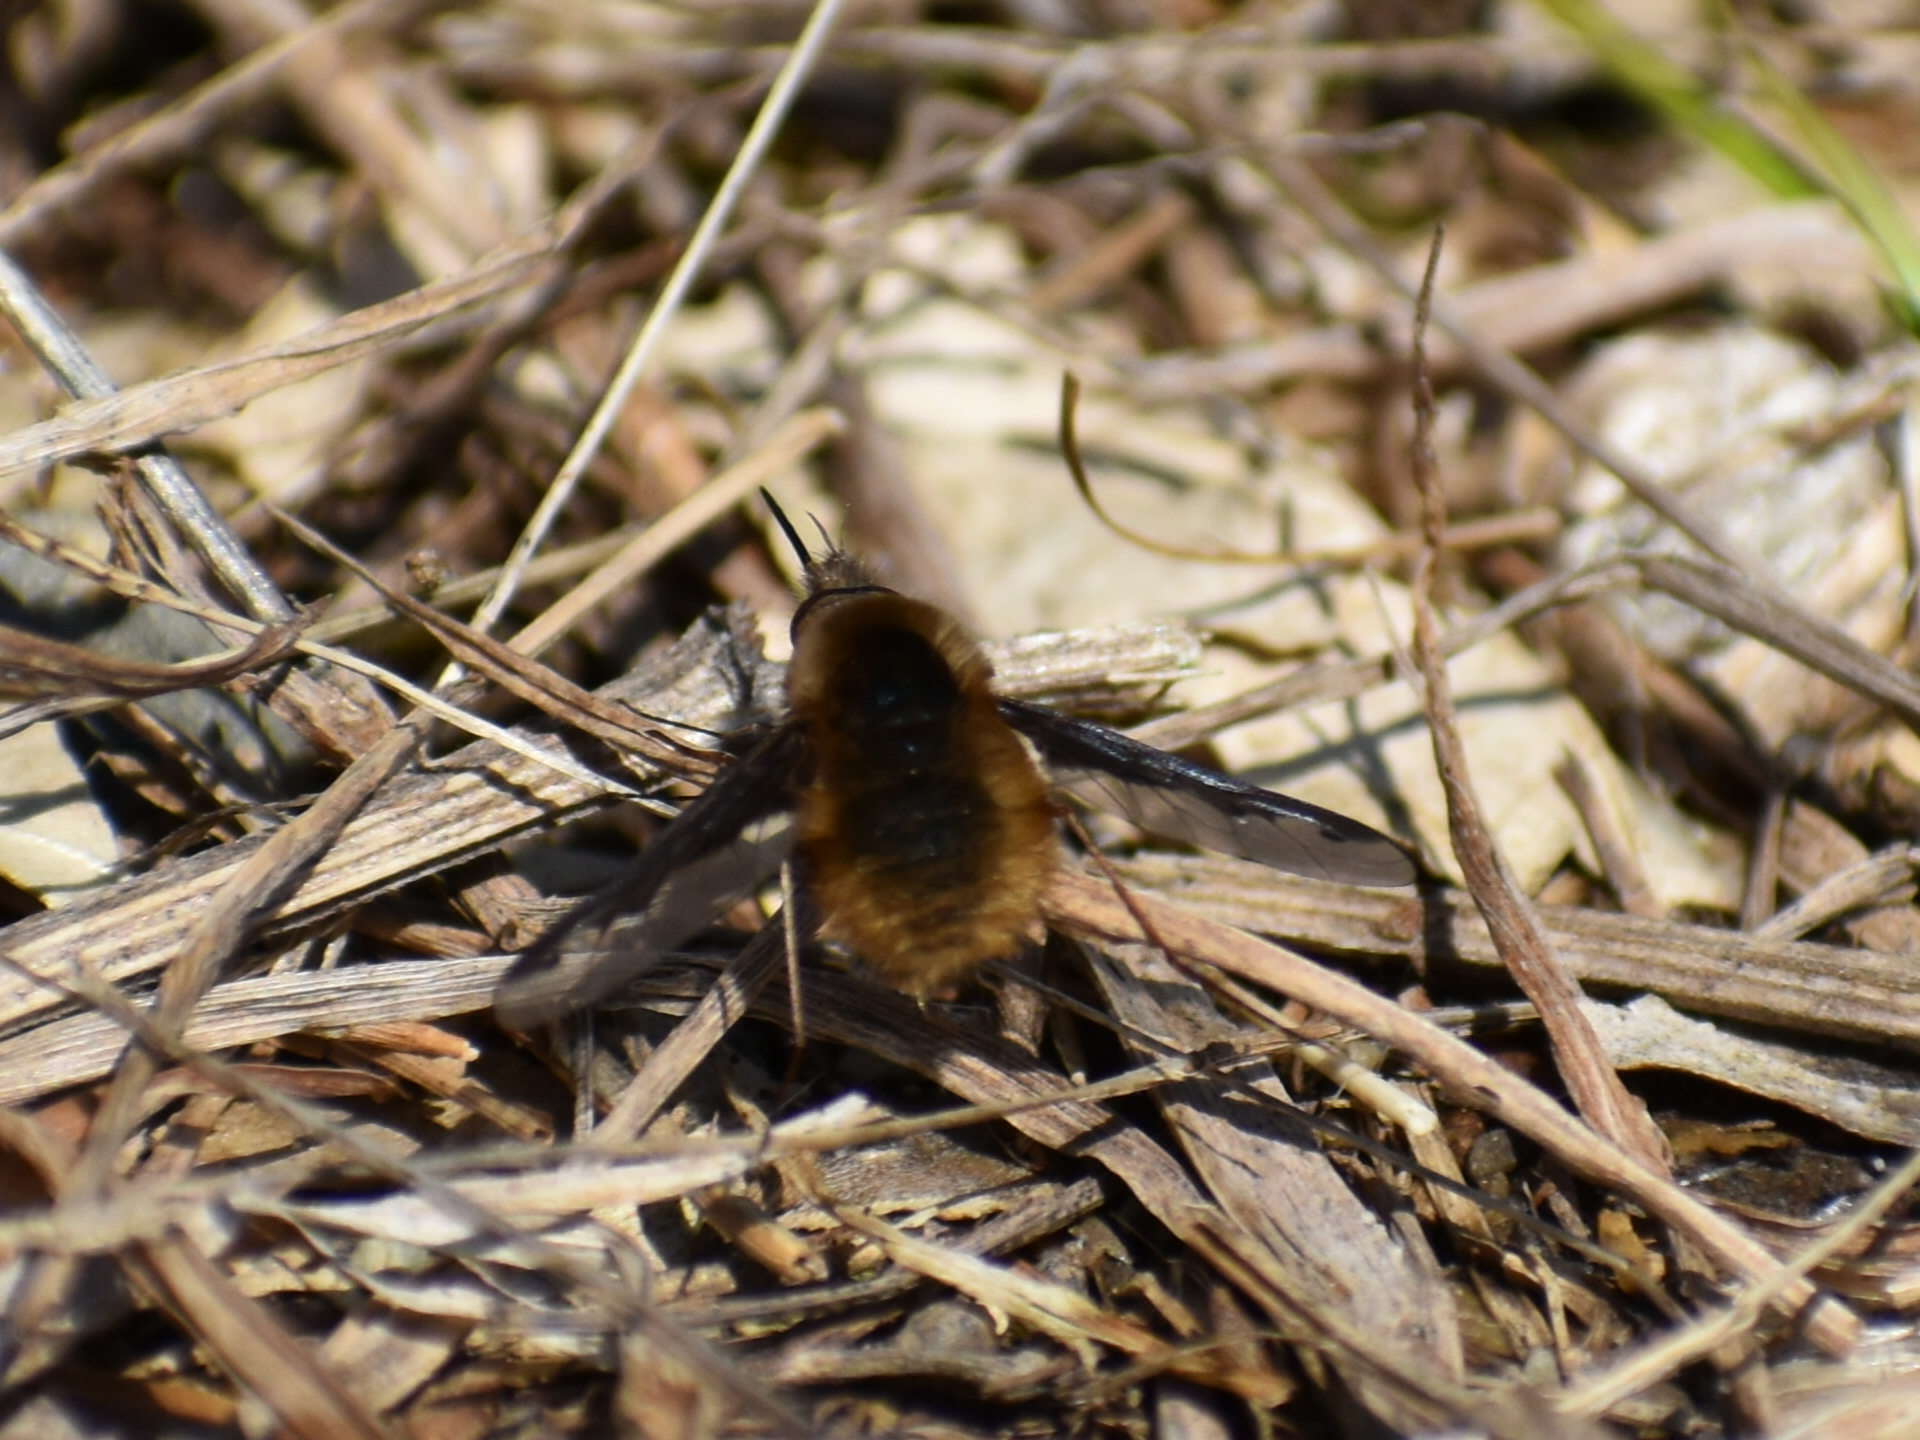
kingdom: Animalia
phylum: Arthropoda
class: Insecta
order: Diptera
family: Bombyliidae
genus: Bombylius
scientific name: Bombylius major
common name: Bee fly
